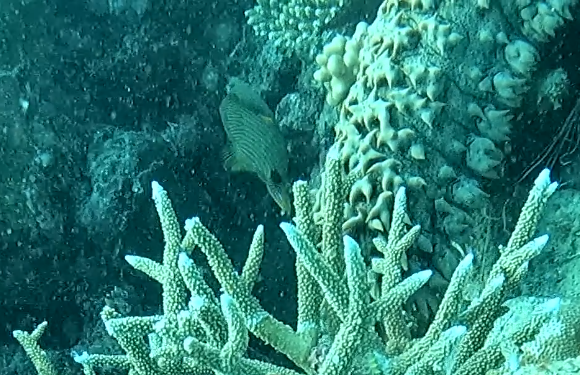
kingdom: Animalia
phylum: Chordata
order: Tetraodontiformes
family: Balistidae
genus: Balistapus
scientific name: Balistapus undulatus
